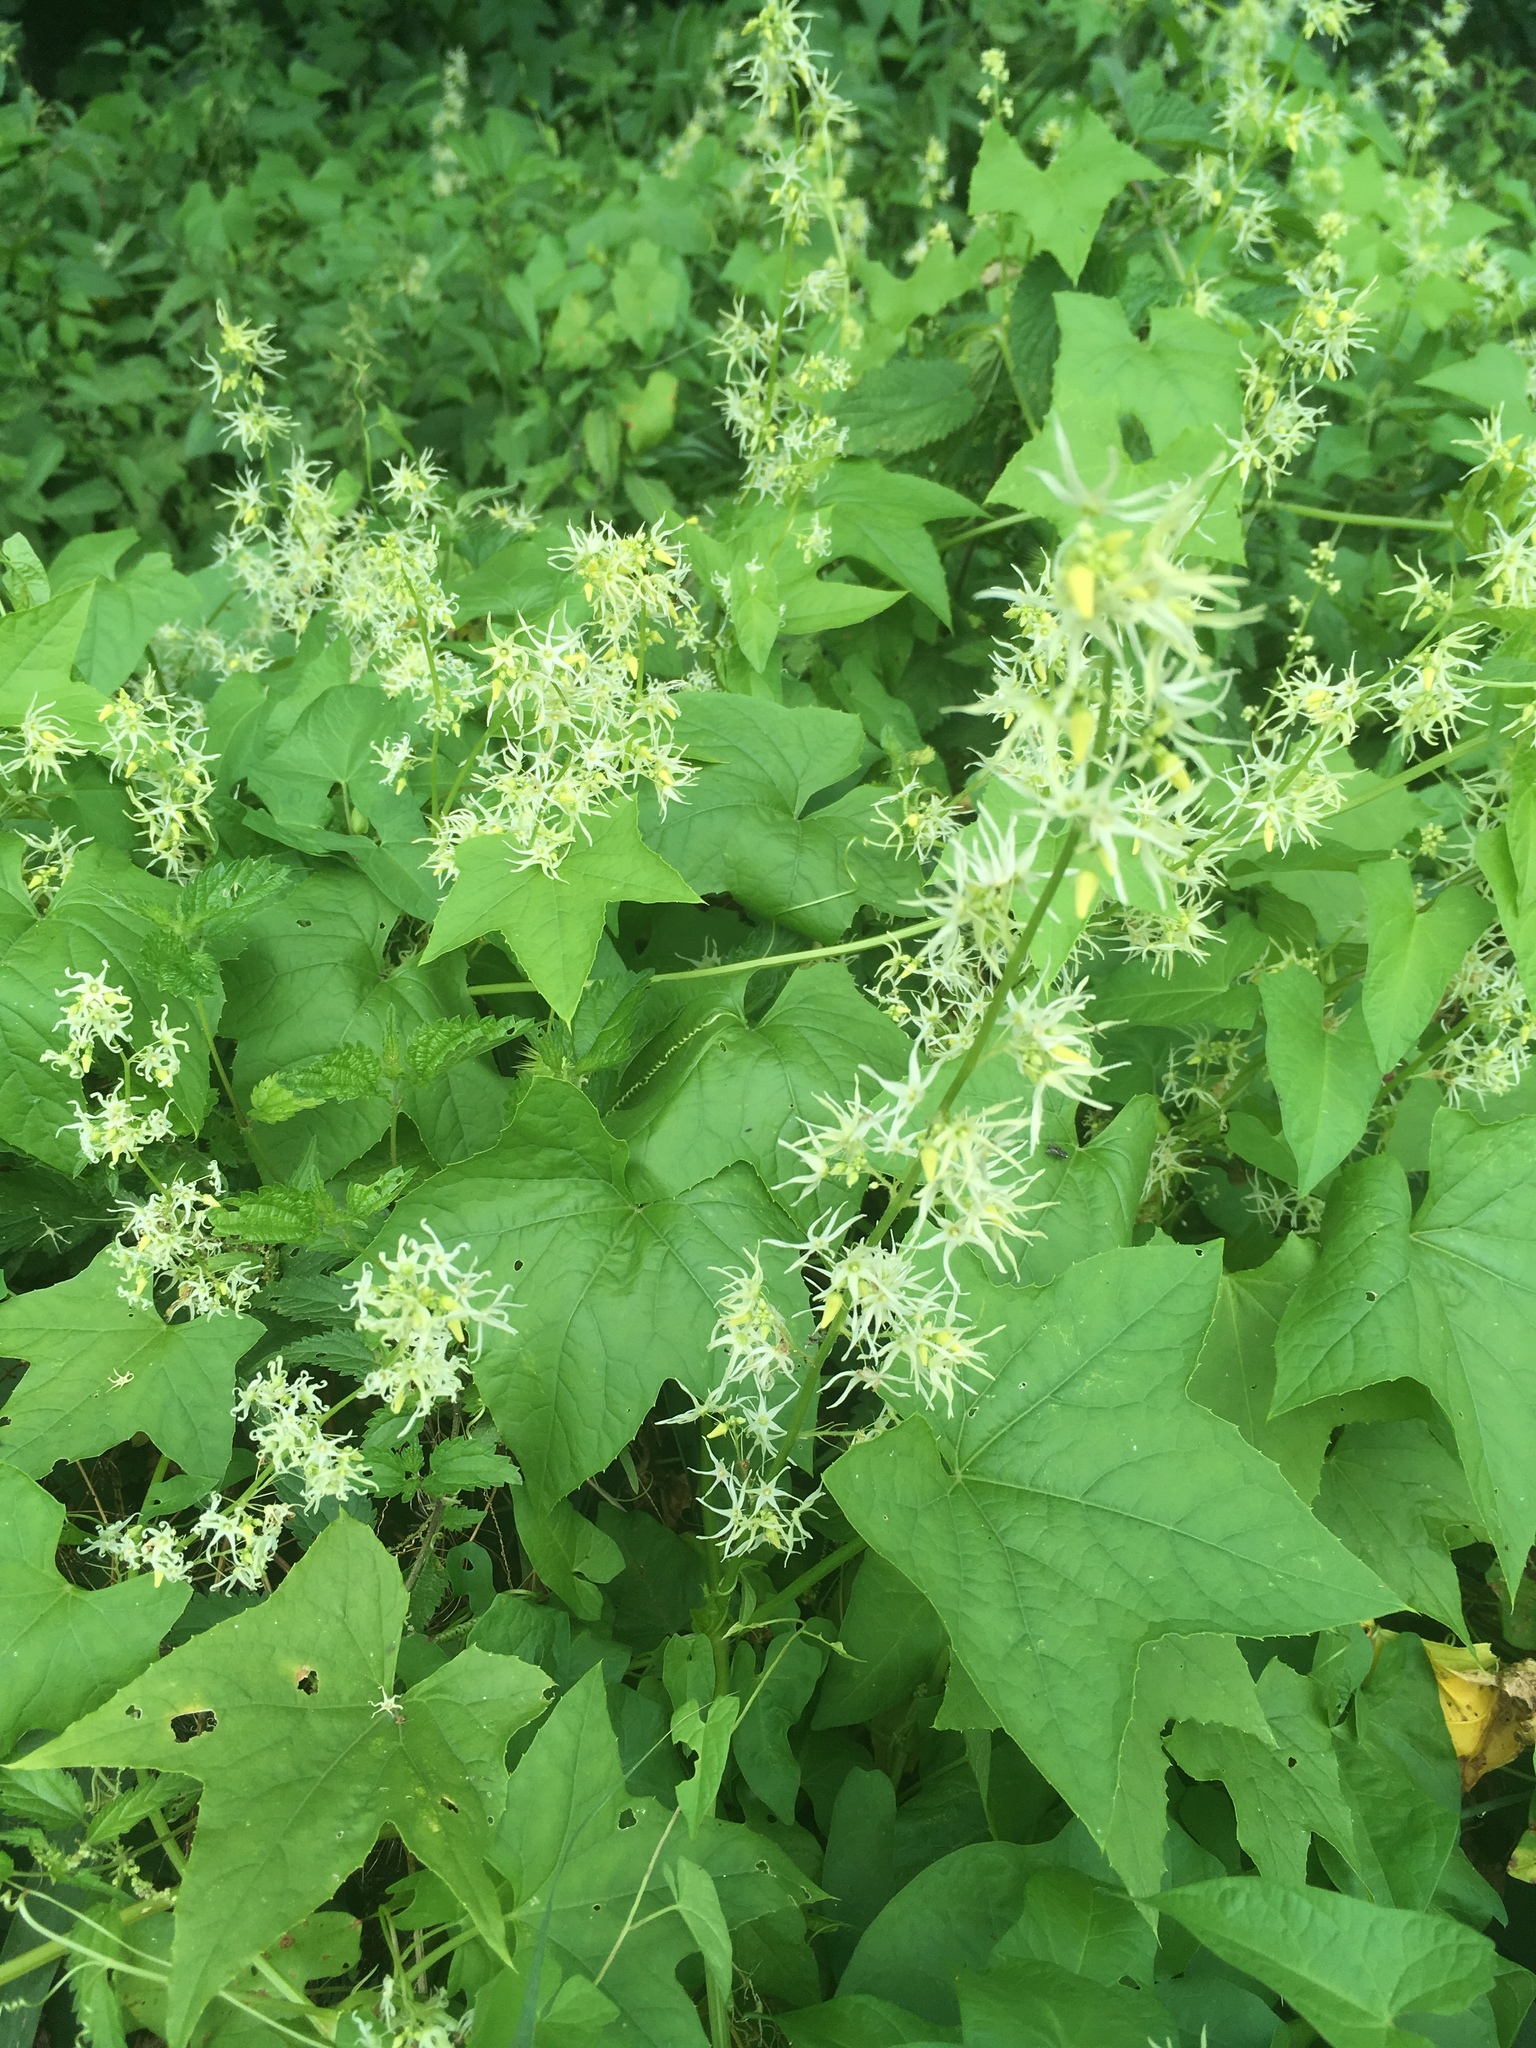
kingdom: Plantae
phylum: Tracheophyta
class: Magnoliopsida
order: Cucurbitales
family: Cucurbitaceae
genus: Echinocystis
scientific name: Echinocystis lobata
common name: Wild cucumber
